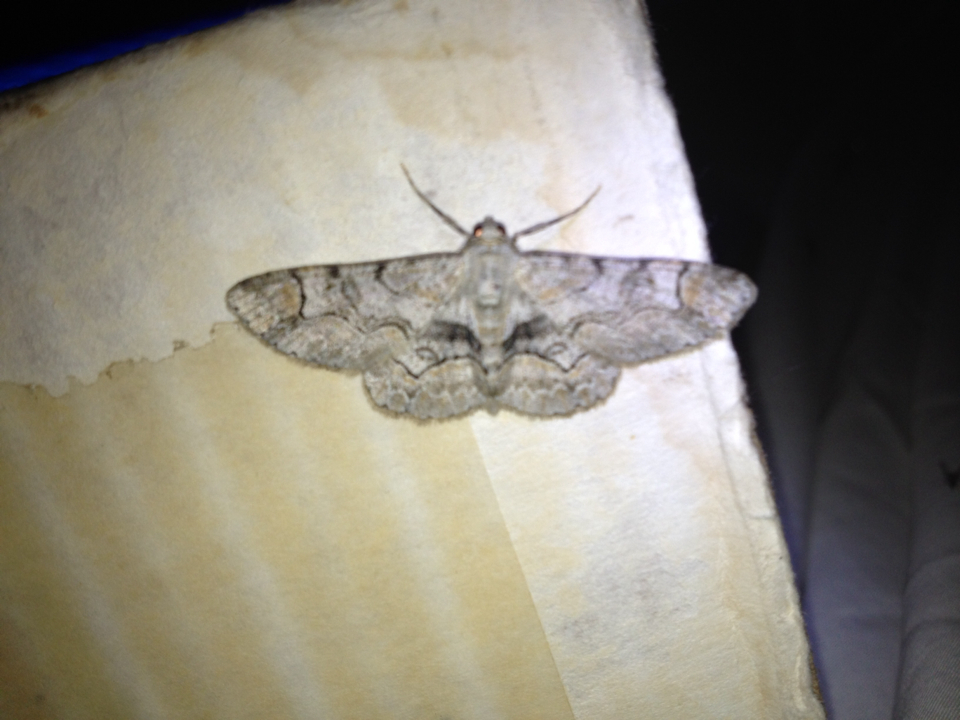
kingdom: Animalia
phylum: Arthropoda
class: Insecta
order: Lepidoptera
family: Geometridae
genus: Iridopsis
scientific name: Iridopsis larvaria
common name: Bent-line gray
